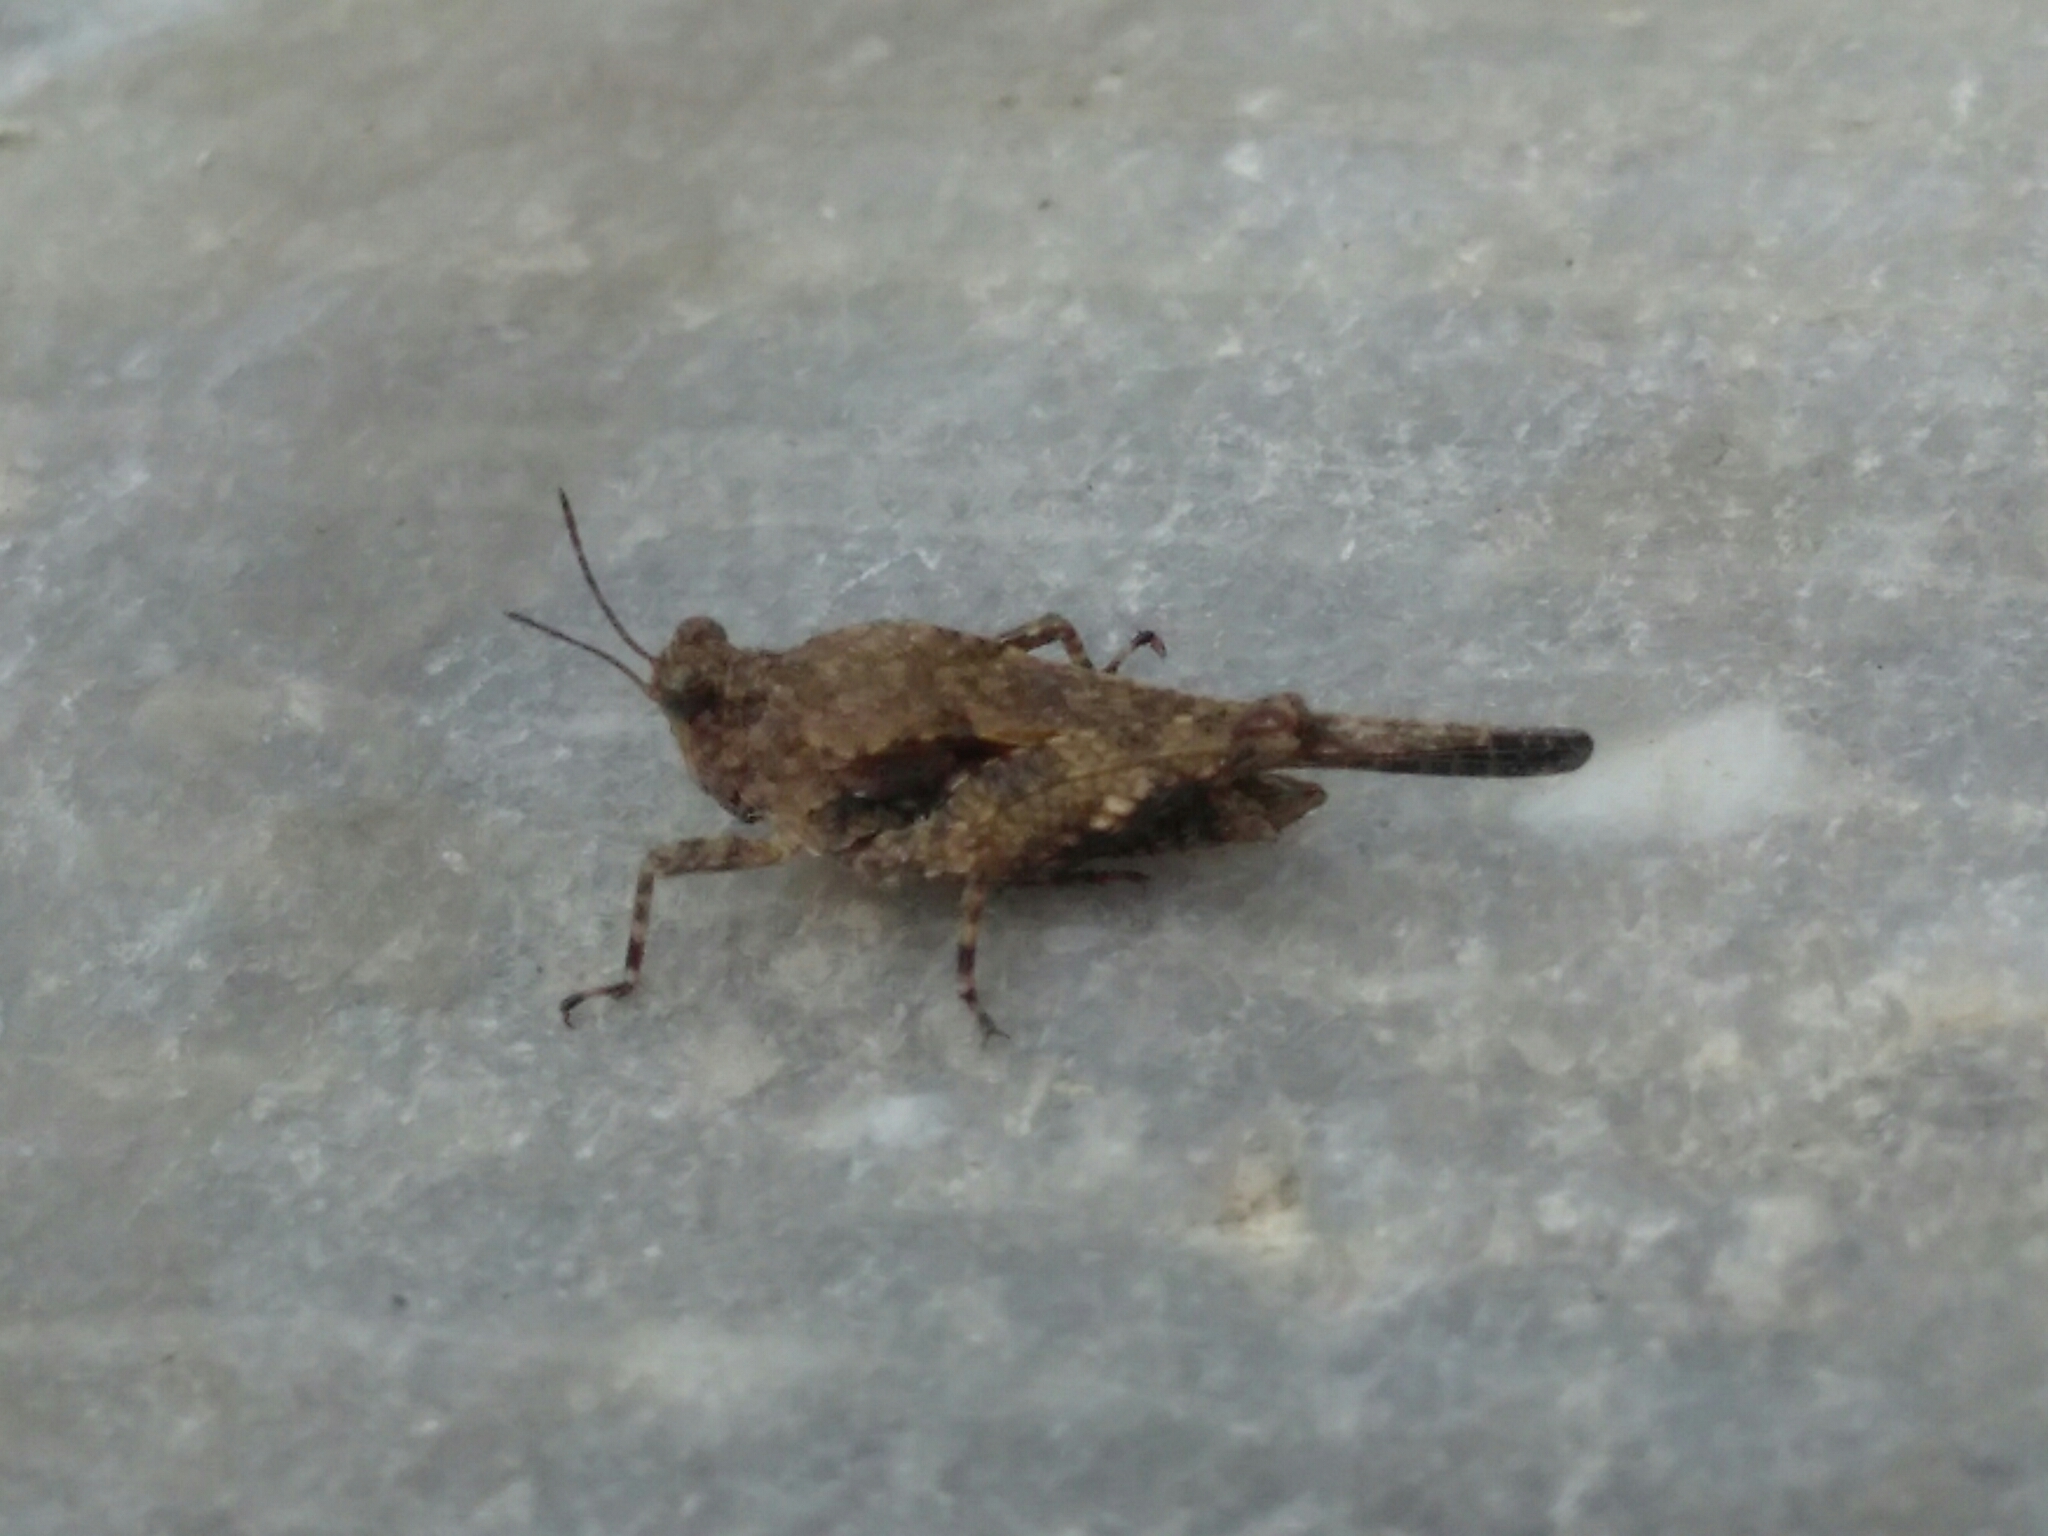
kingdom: Animalia
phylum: Arthropoda
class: Insecta
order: Orthoptera
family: Tetrigidae
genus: Paratettix
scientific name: Paratettix meridionalis
